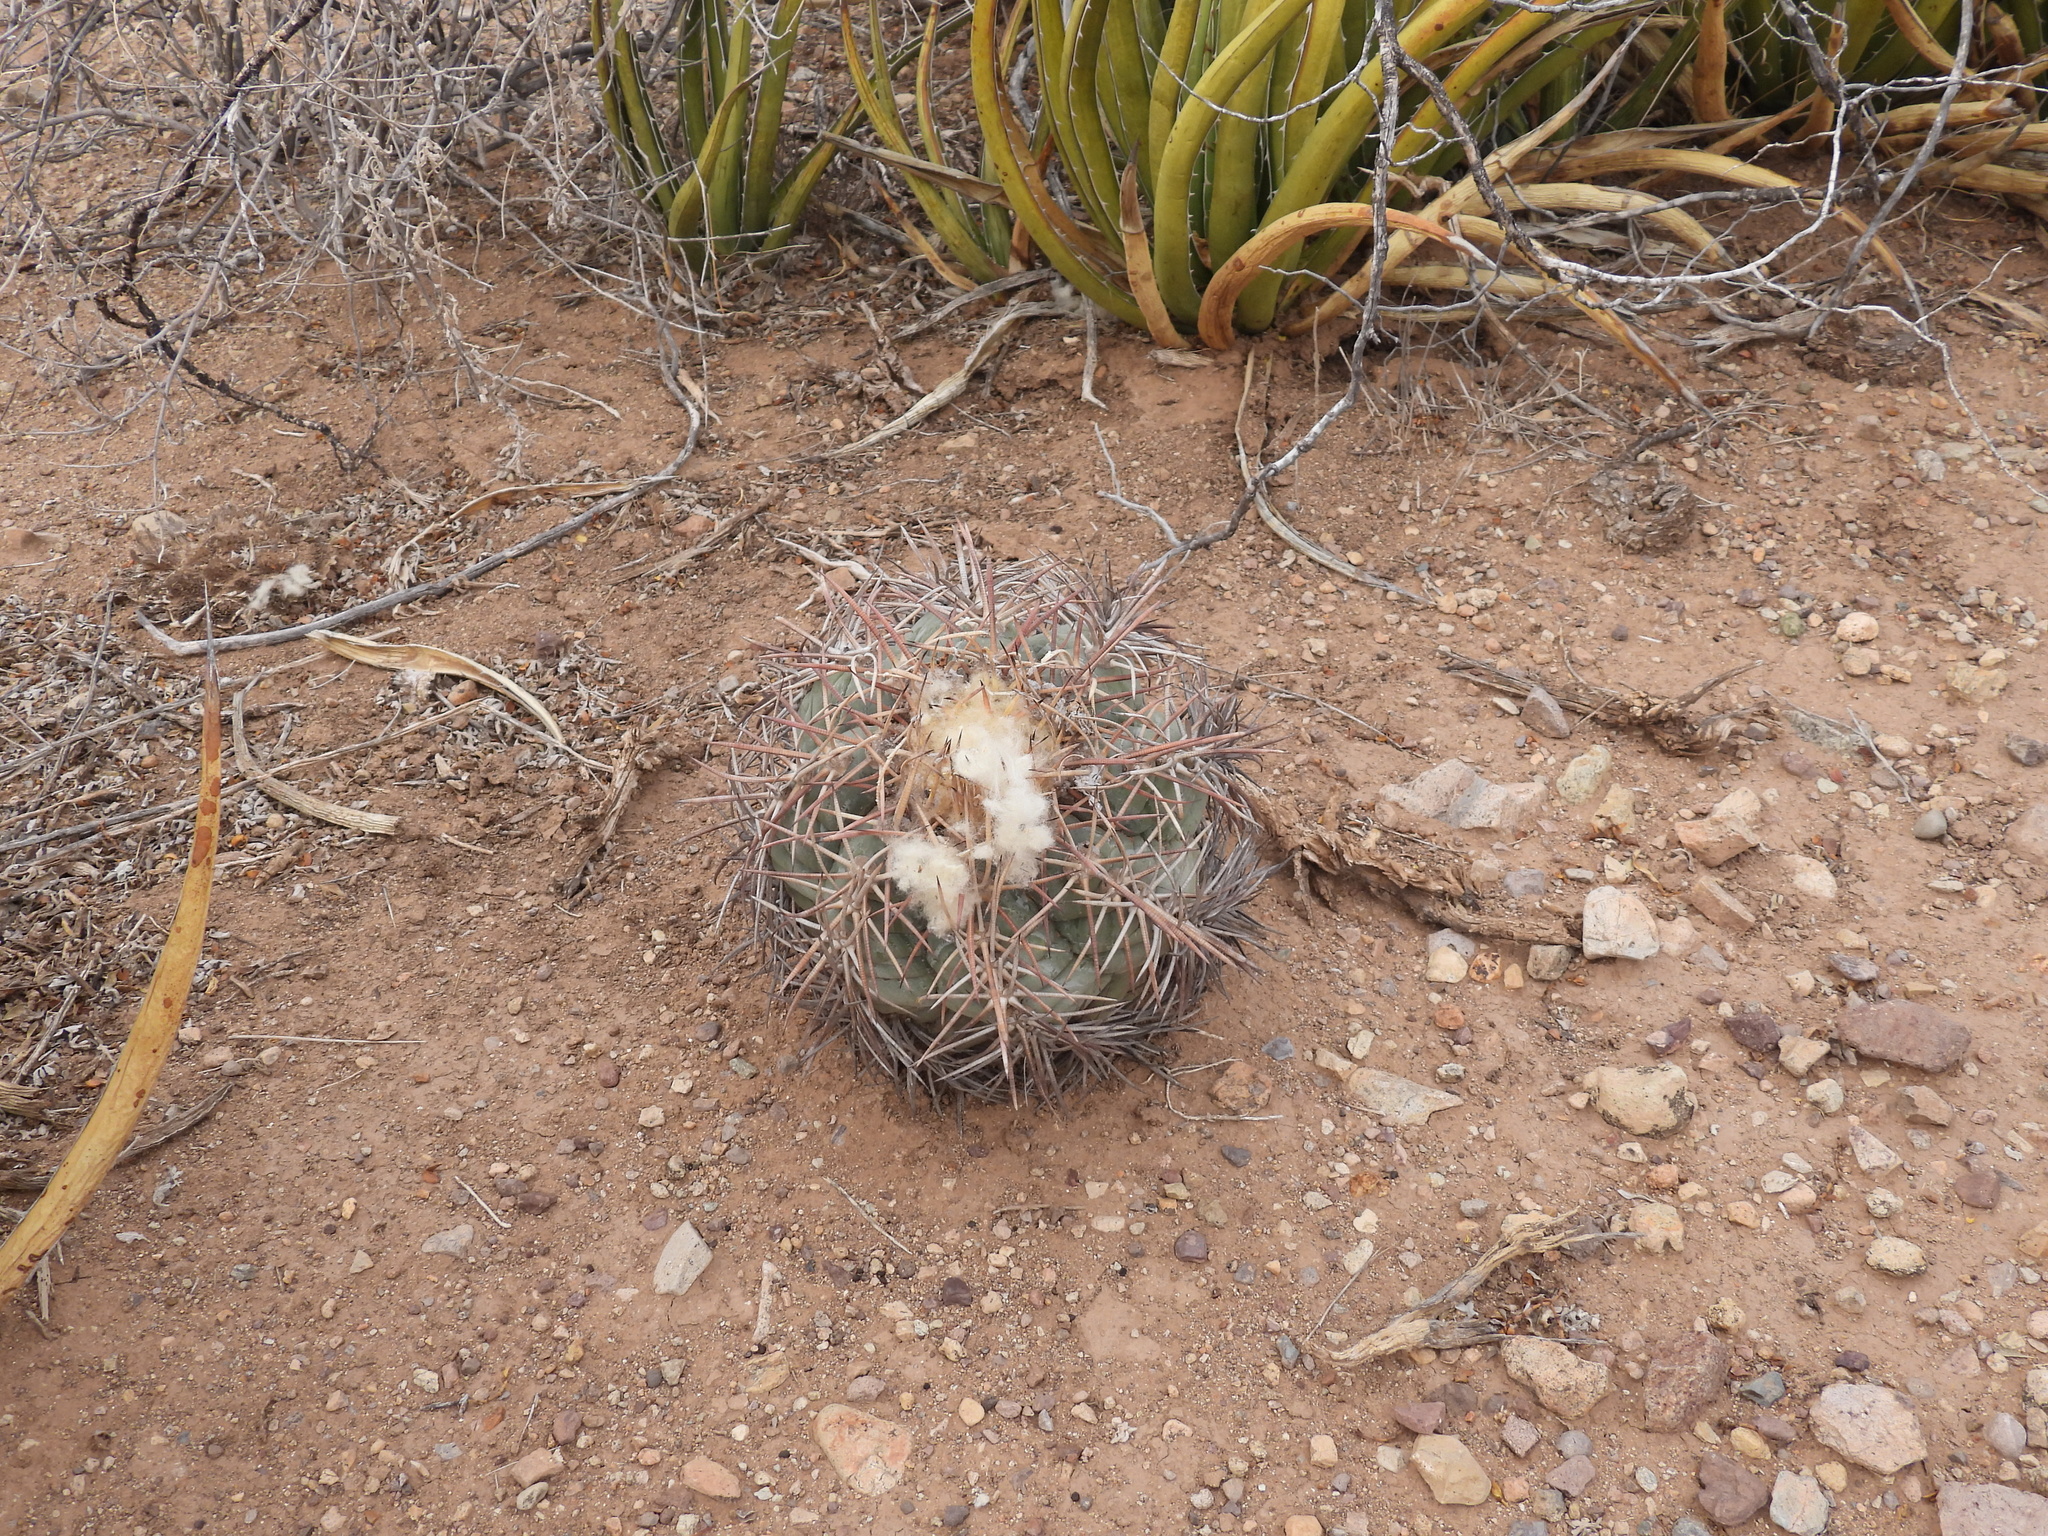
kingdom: Plantae
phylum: Tracheophyta
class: Magnoliopsida
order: Caryophyllales
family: Cactaceae
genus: Echinocactus
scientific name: Echinocactus horizonthalonius
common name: Devilshead
